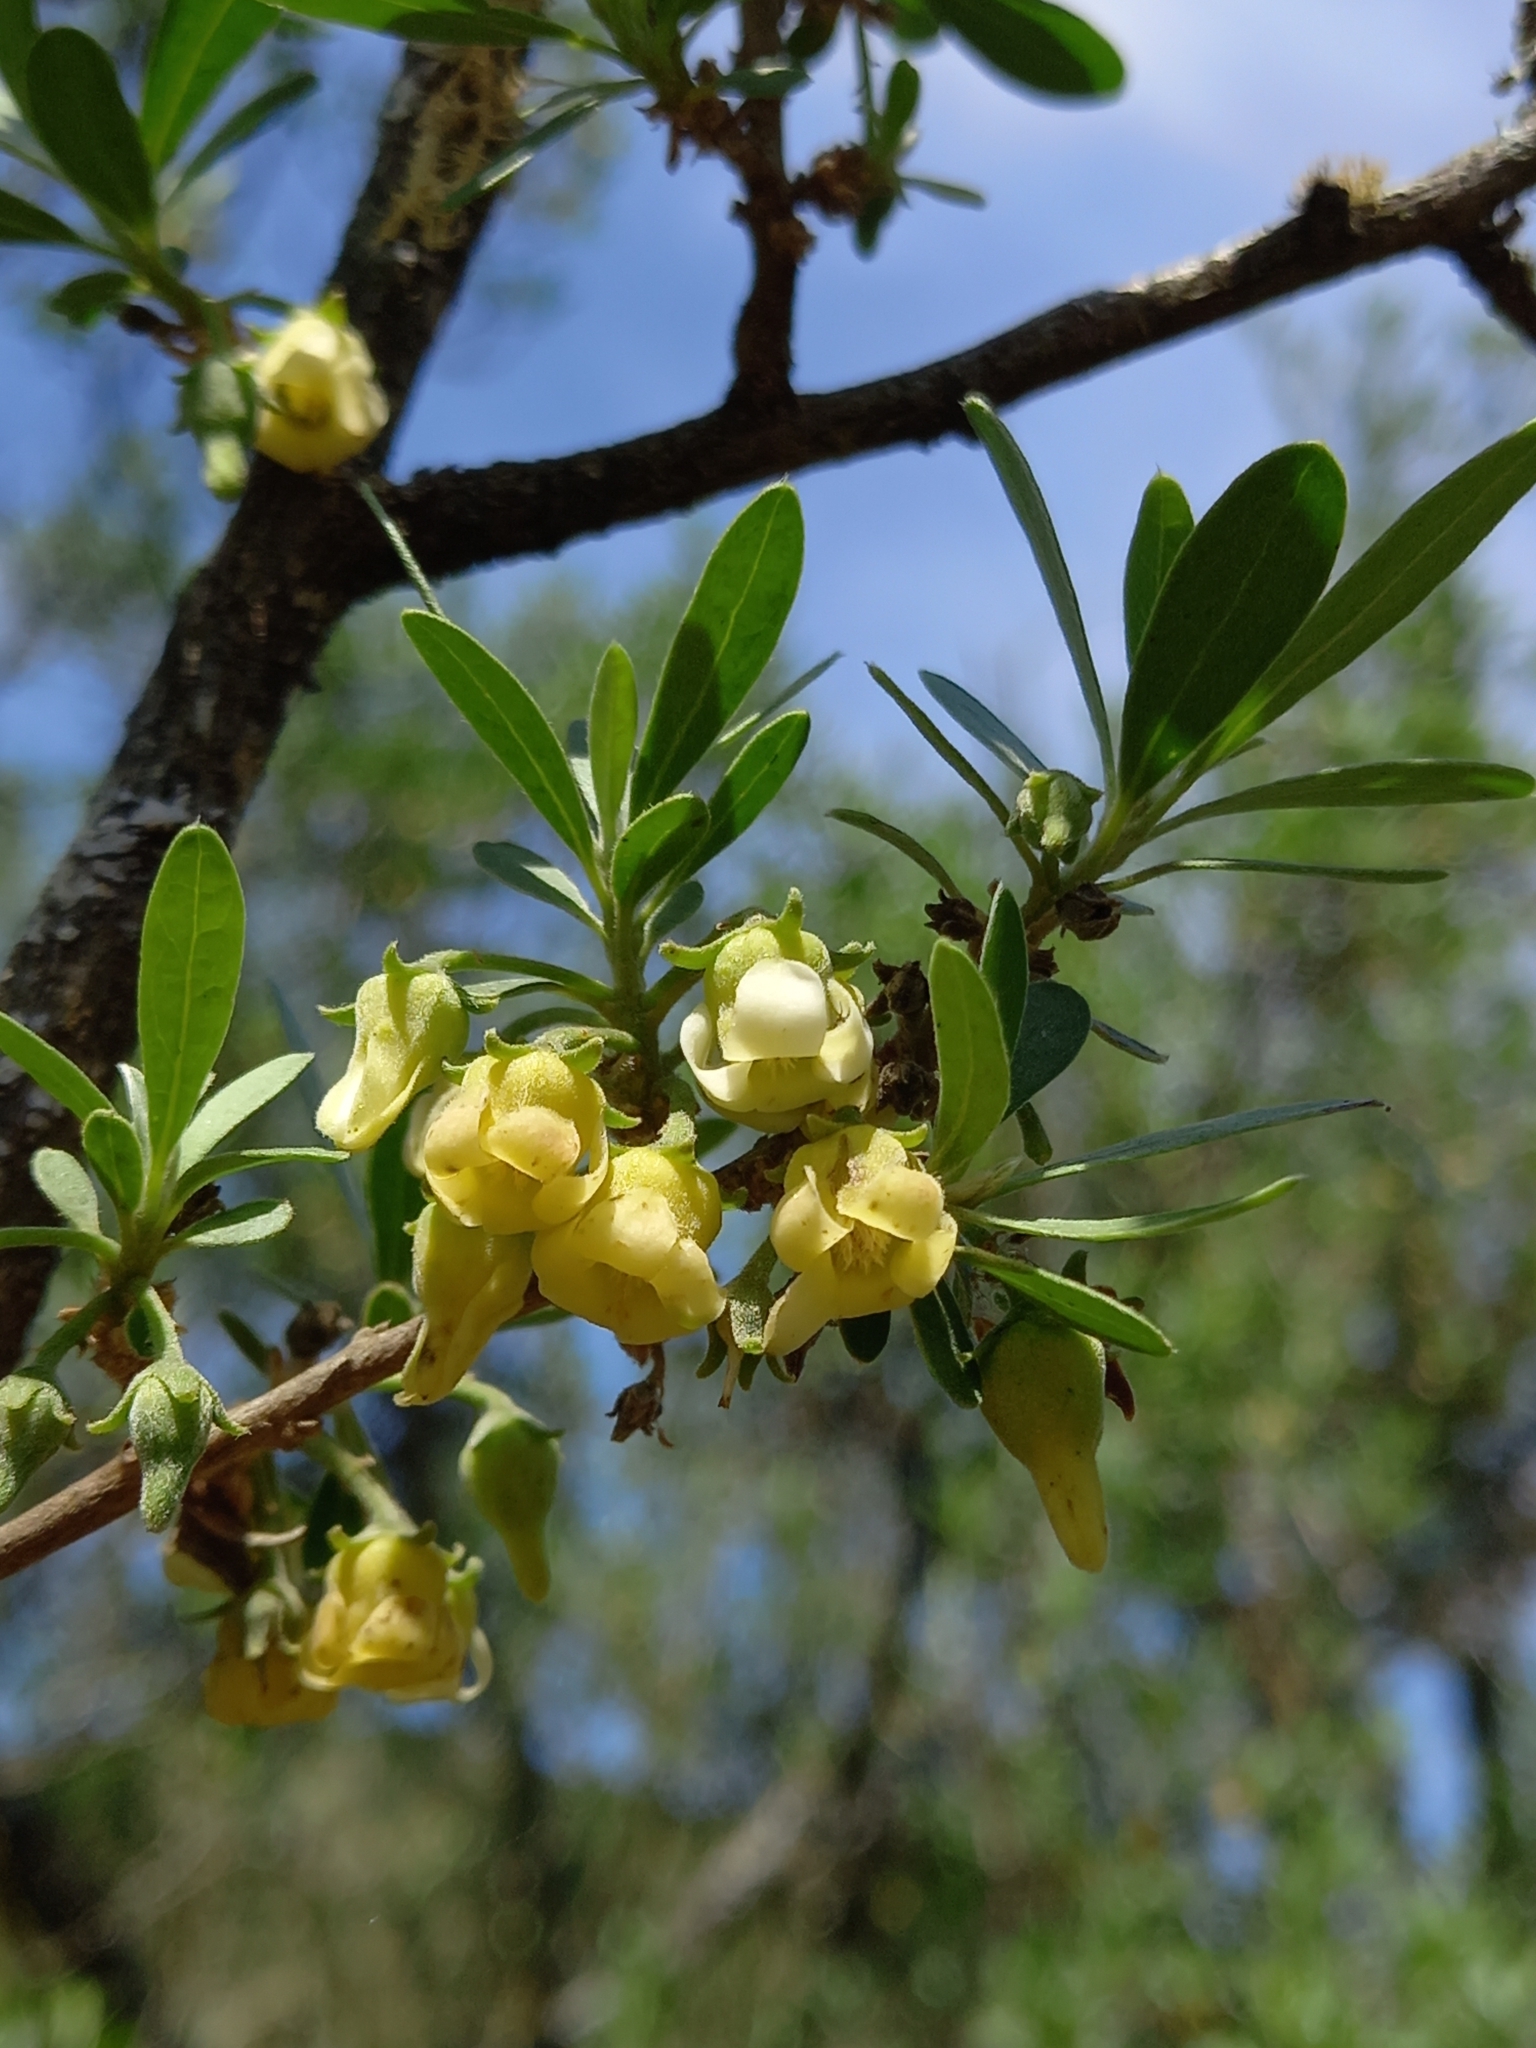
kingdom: Plantae
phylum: Tracheophyta
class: Magnoliopsida
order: Ericales
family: Ebenaceae
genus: Diospyros
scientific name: Diospyros lycioides
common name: Red star apple
